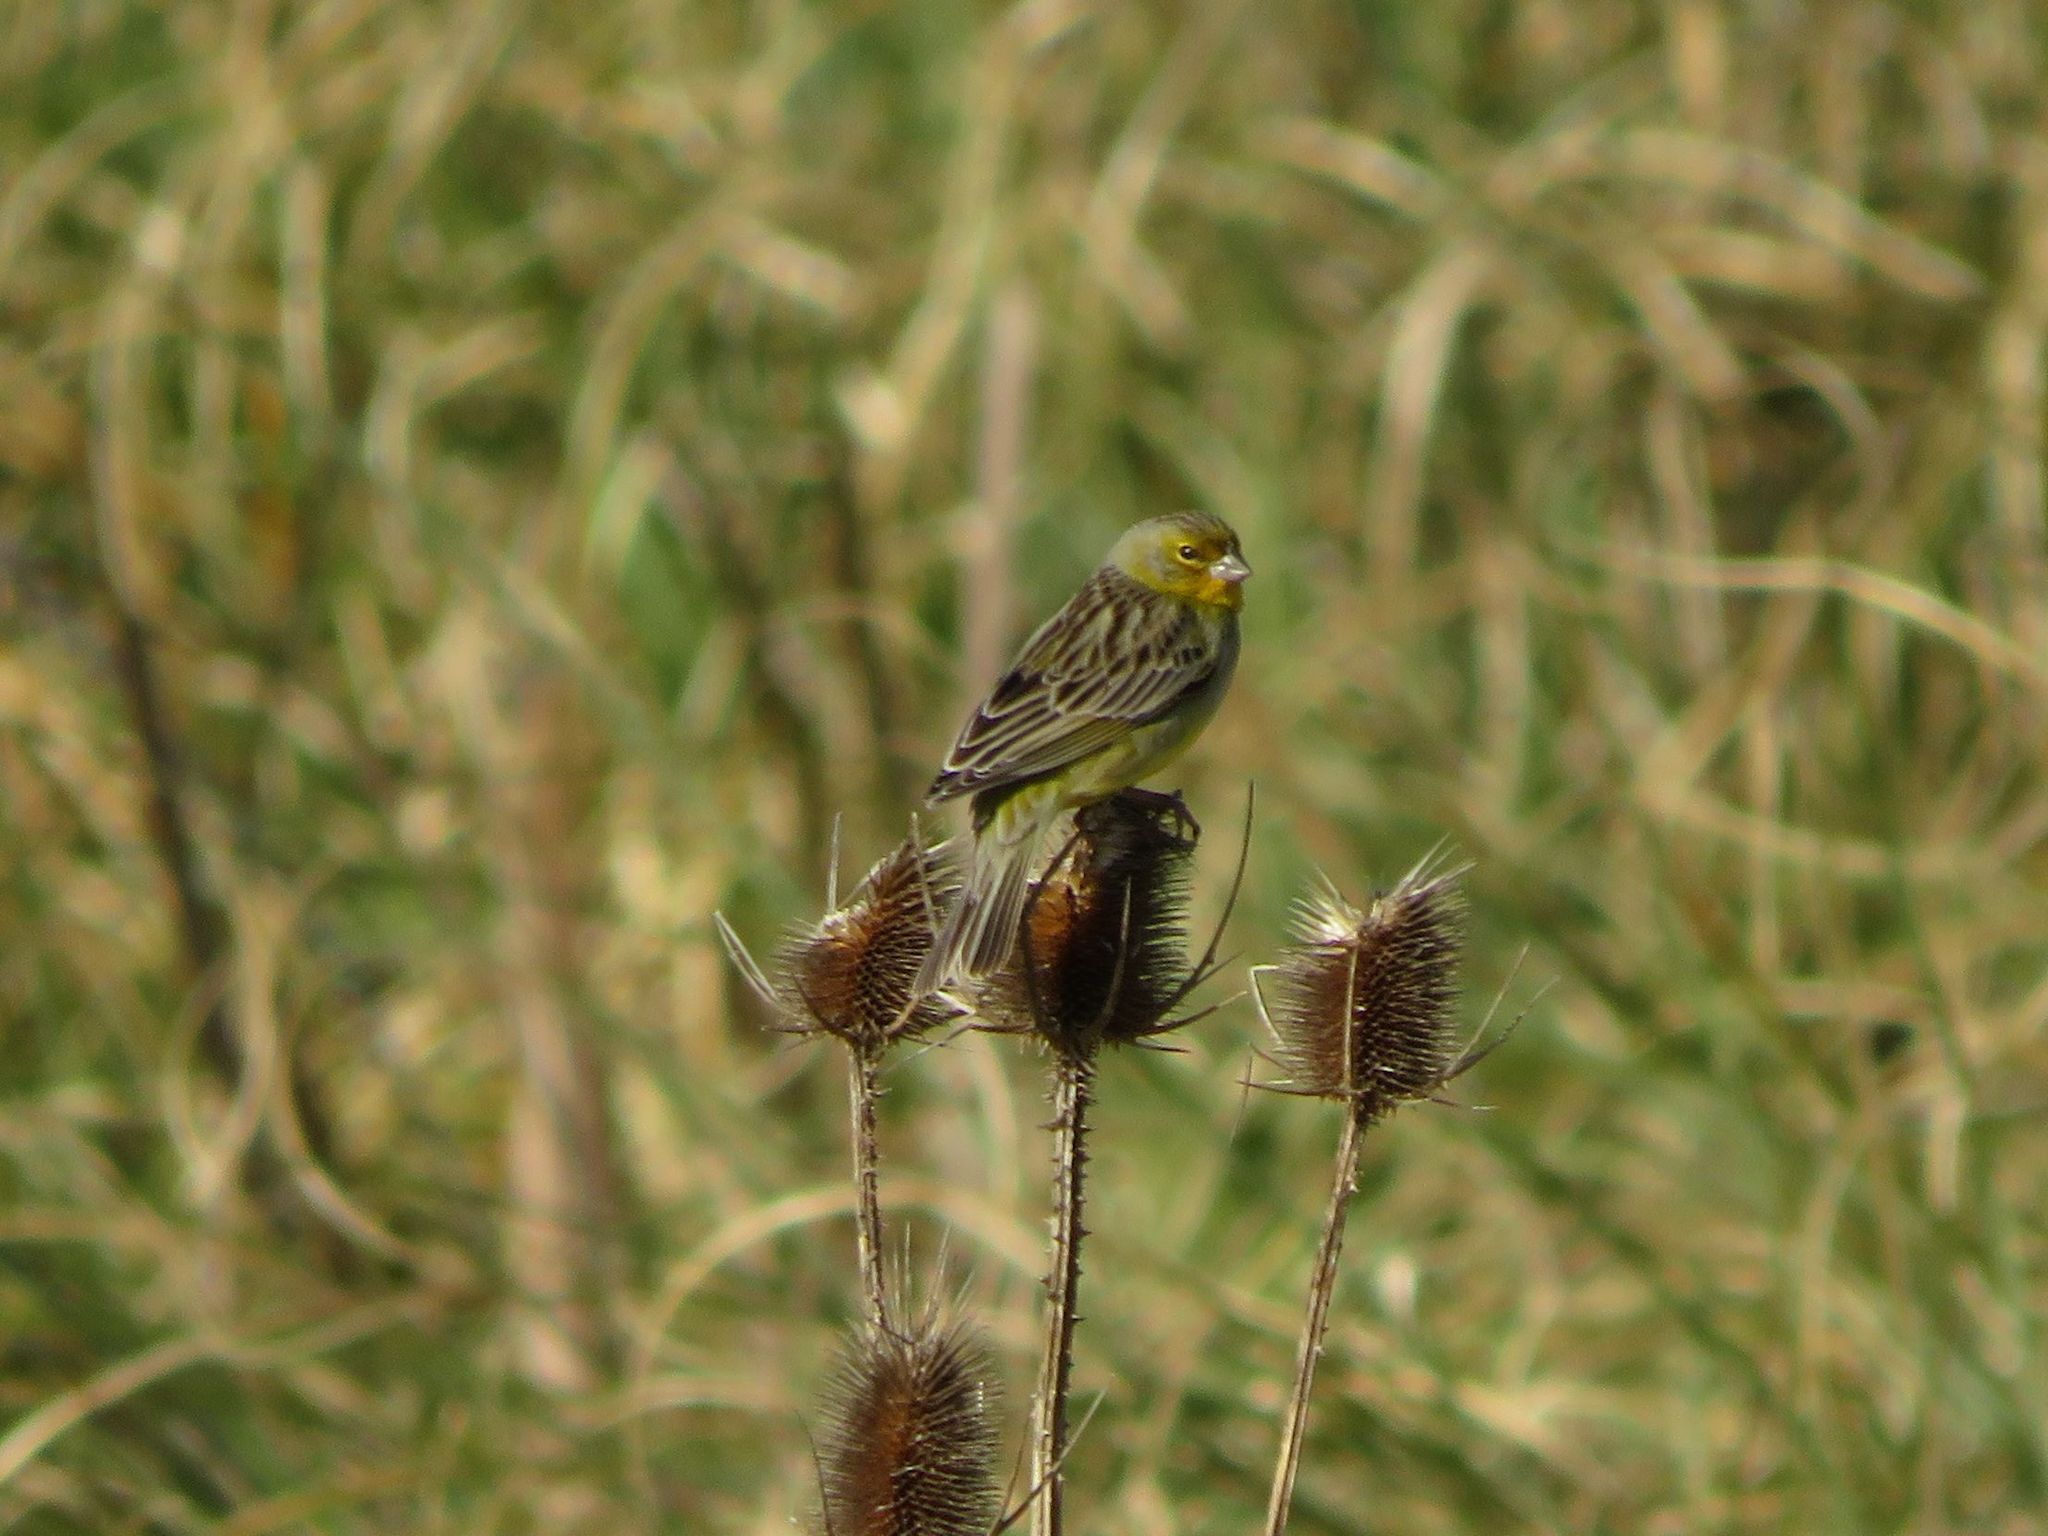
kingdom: Animalia
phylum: Chordata
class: Aves
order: Passeriformes
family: Thraupidae
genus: Sicalis
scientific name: Sicalis luteola
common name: Grassland yellow-finch
